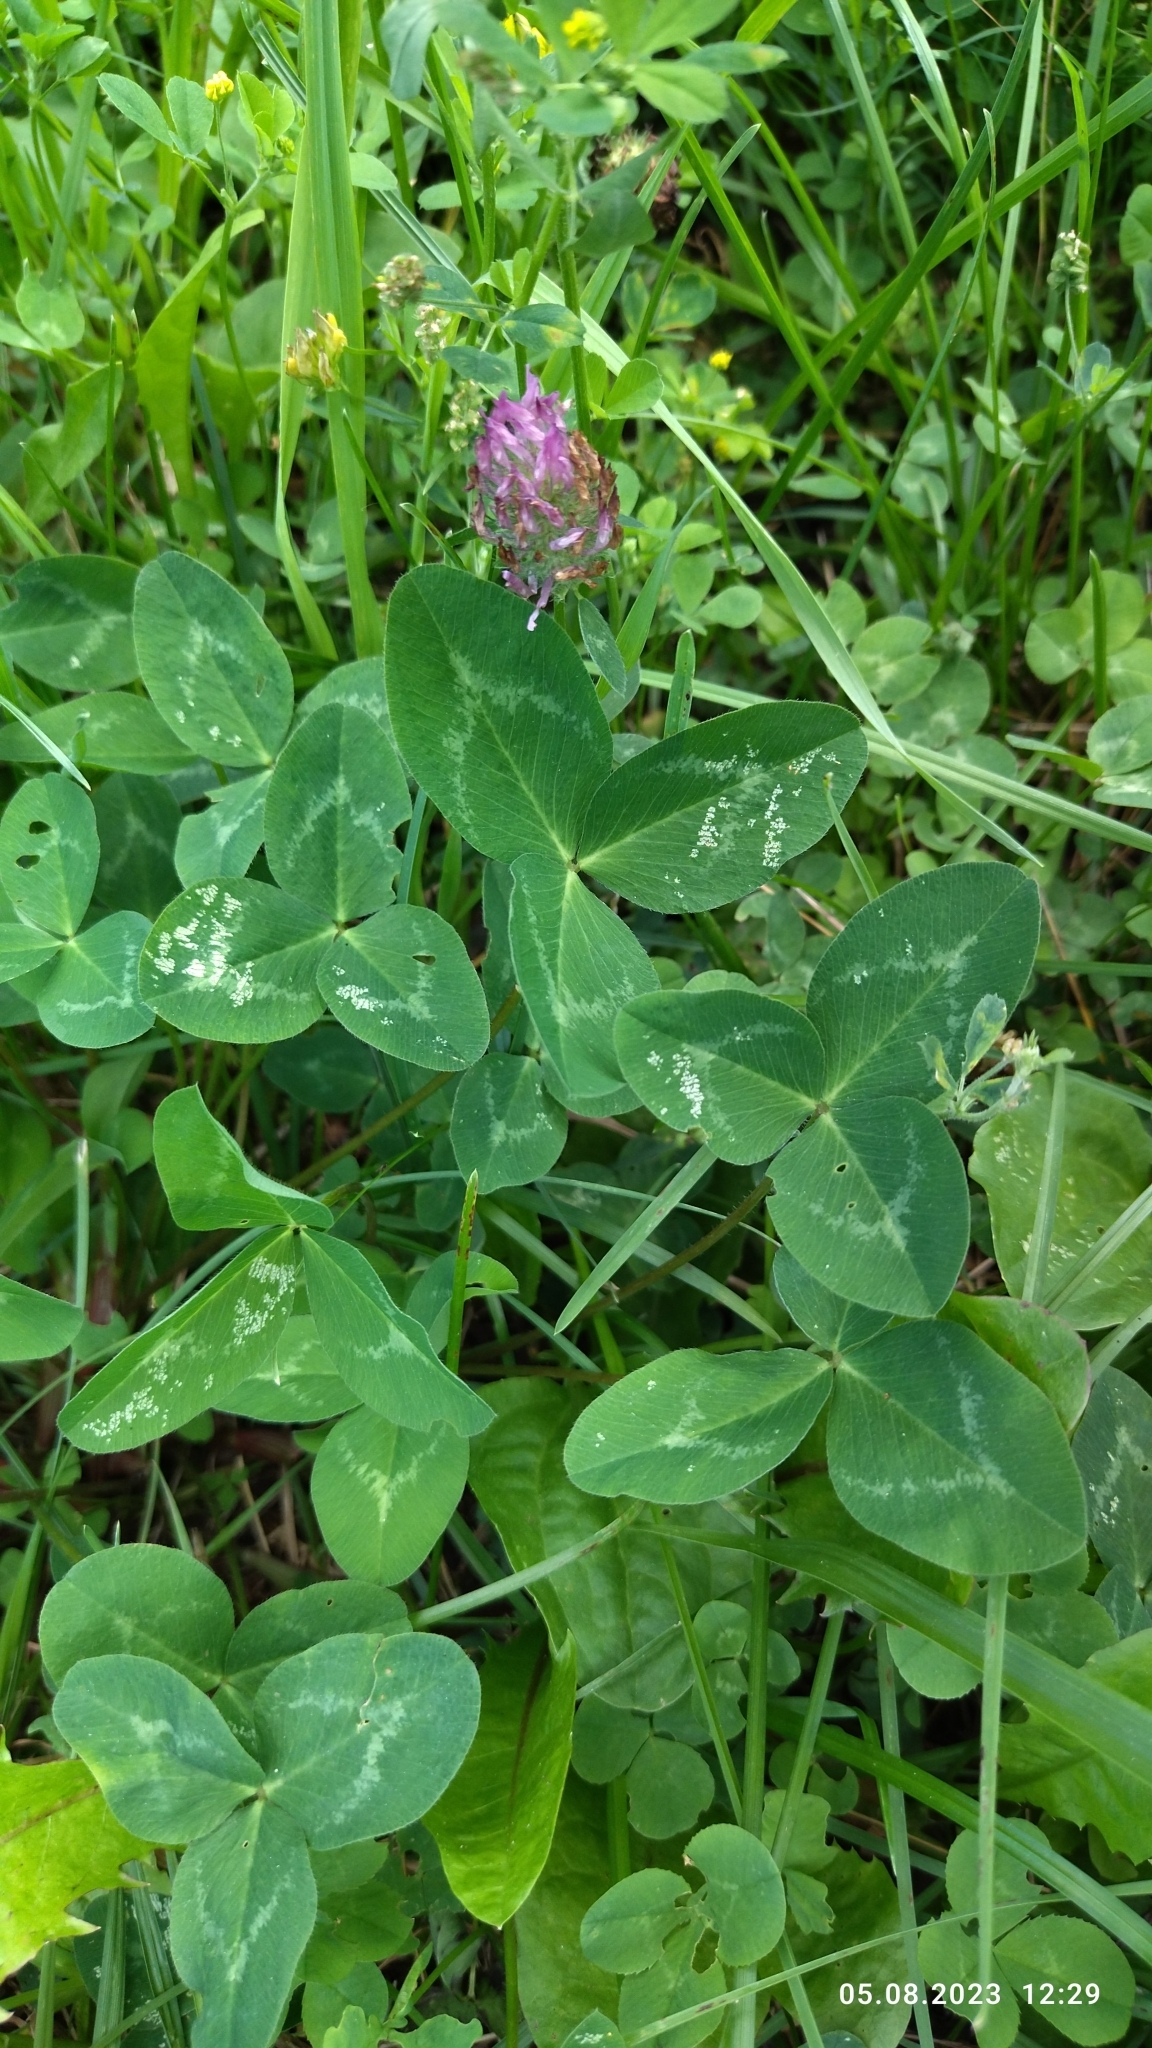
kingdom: Plantae
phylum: Tracheophyta
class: Magnoliopsida
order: Fabales
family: Fabaceae
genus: Trifolium
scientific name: Trifolium pratense
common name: Red clover
